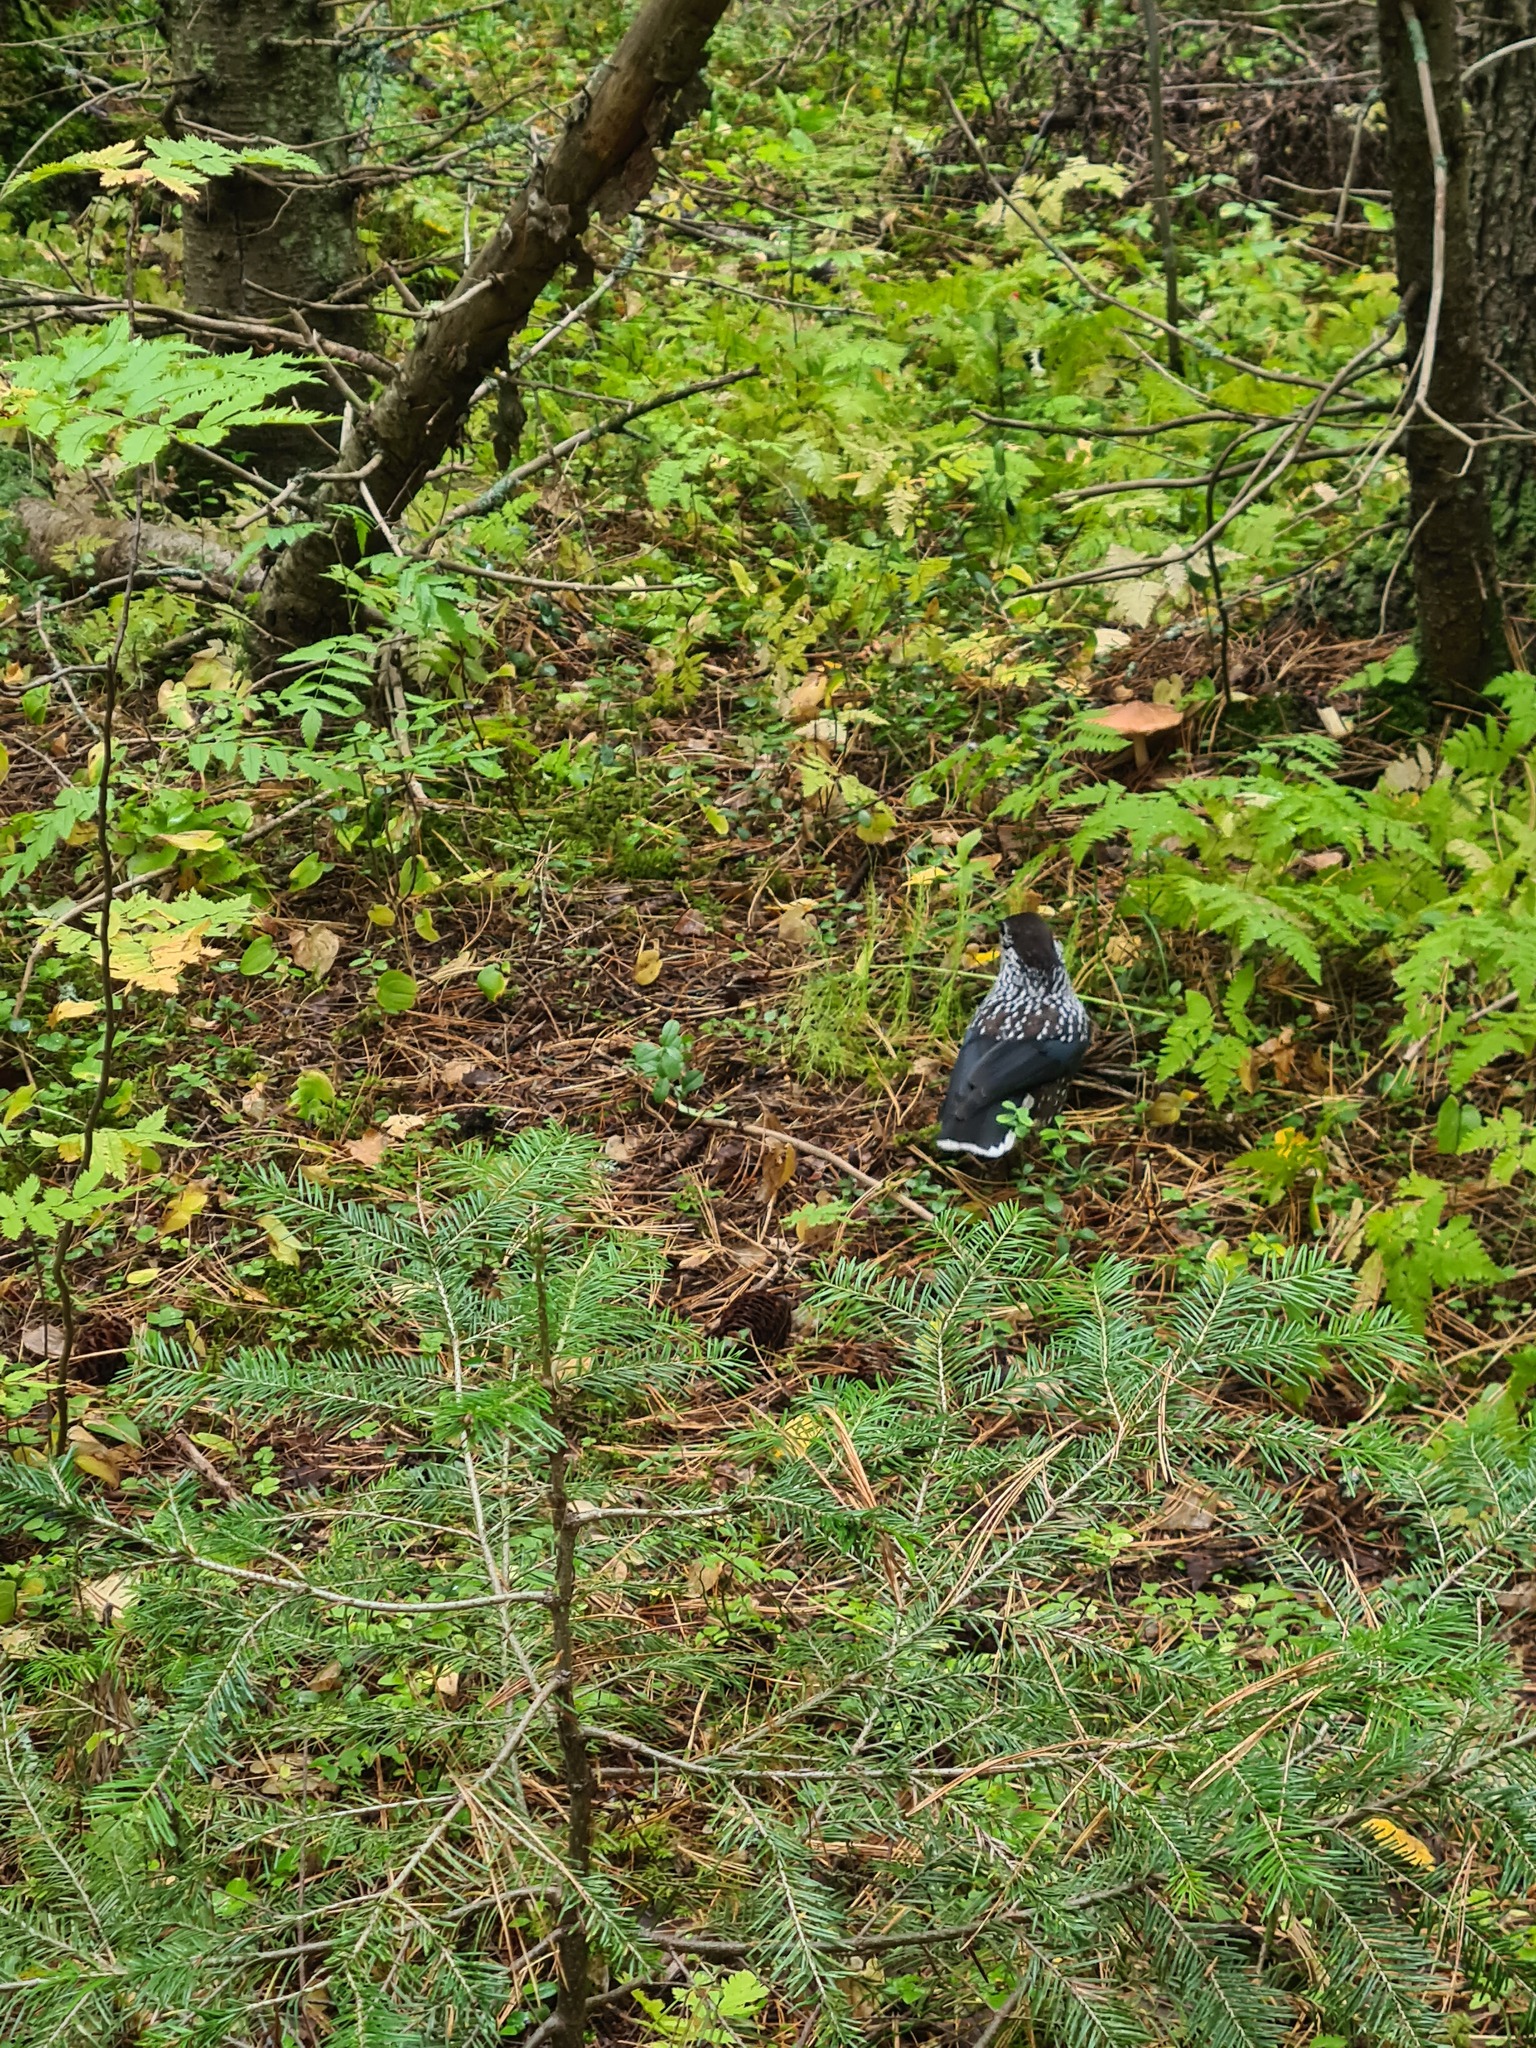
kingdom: Animalia
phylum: Chordata
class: Aves
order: Passeriformes
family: Corvidae
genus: Nucifraga
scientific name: Nucifraga caryocatactes
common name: Spotted nutcracker
